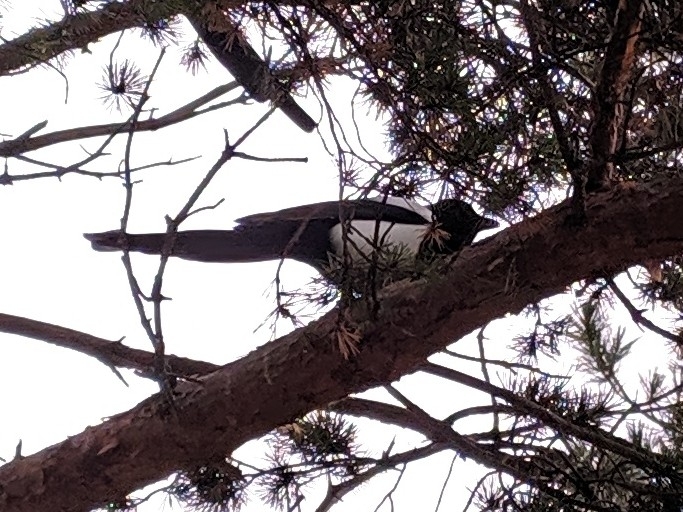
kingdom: Animalia
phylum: Chordata
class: Aves
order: Passeriformes
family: Corvidae
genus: Pica
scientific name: Pica pica
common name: Eurasian magpie
